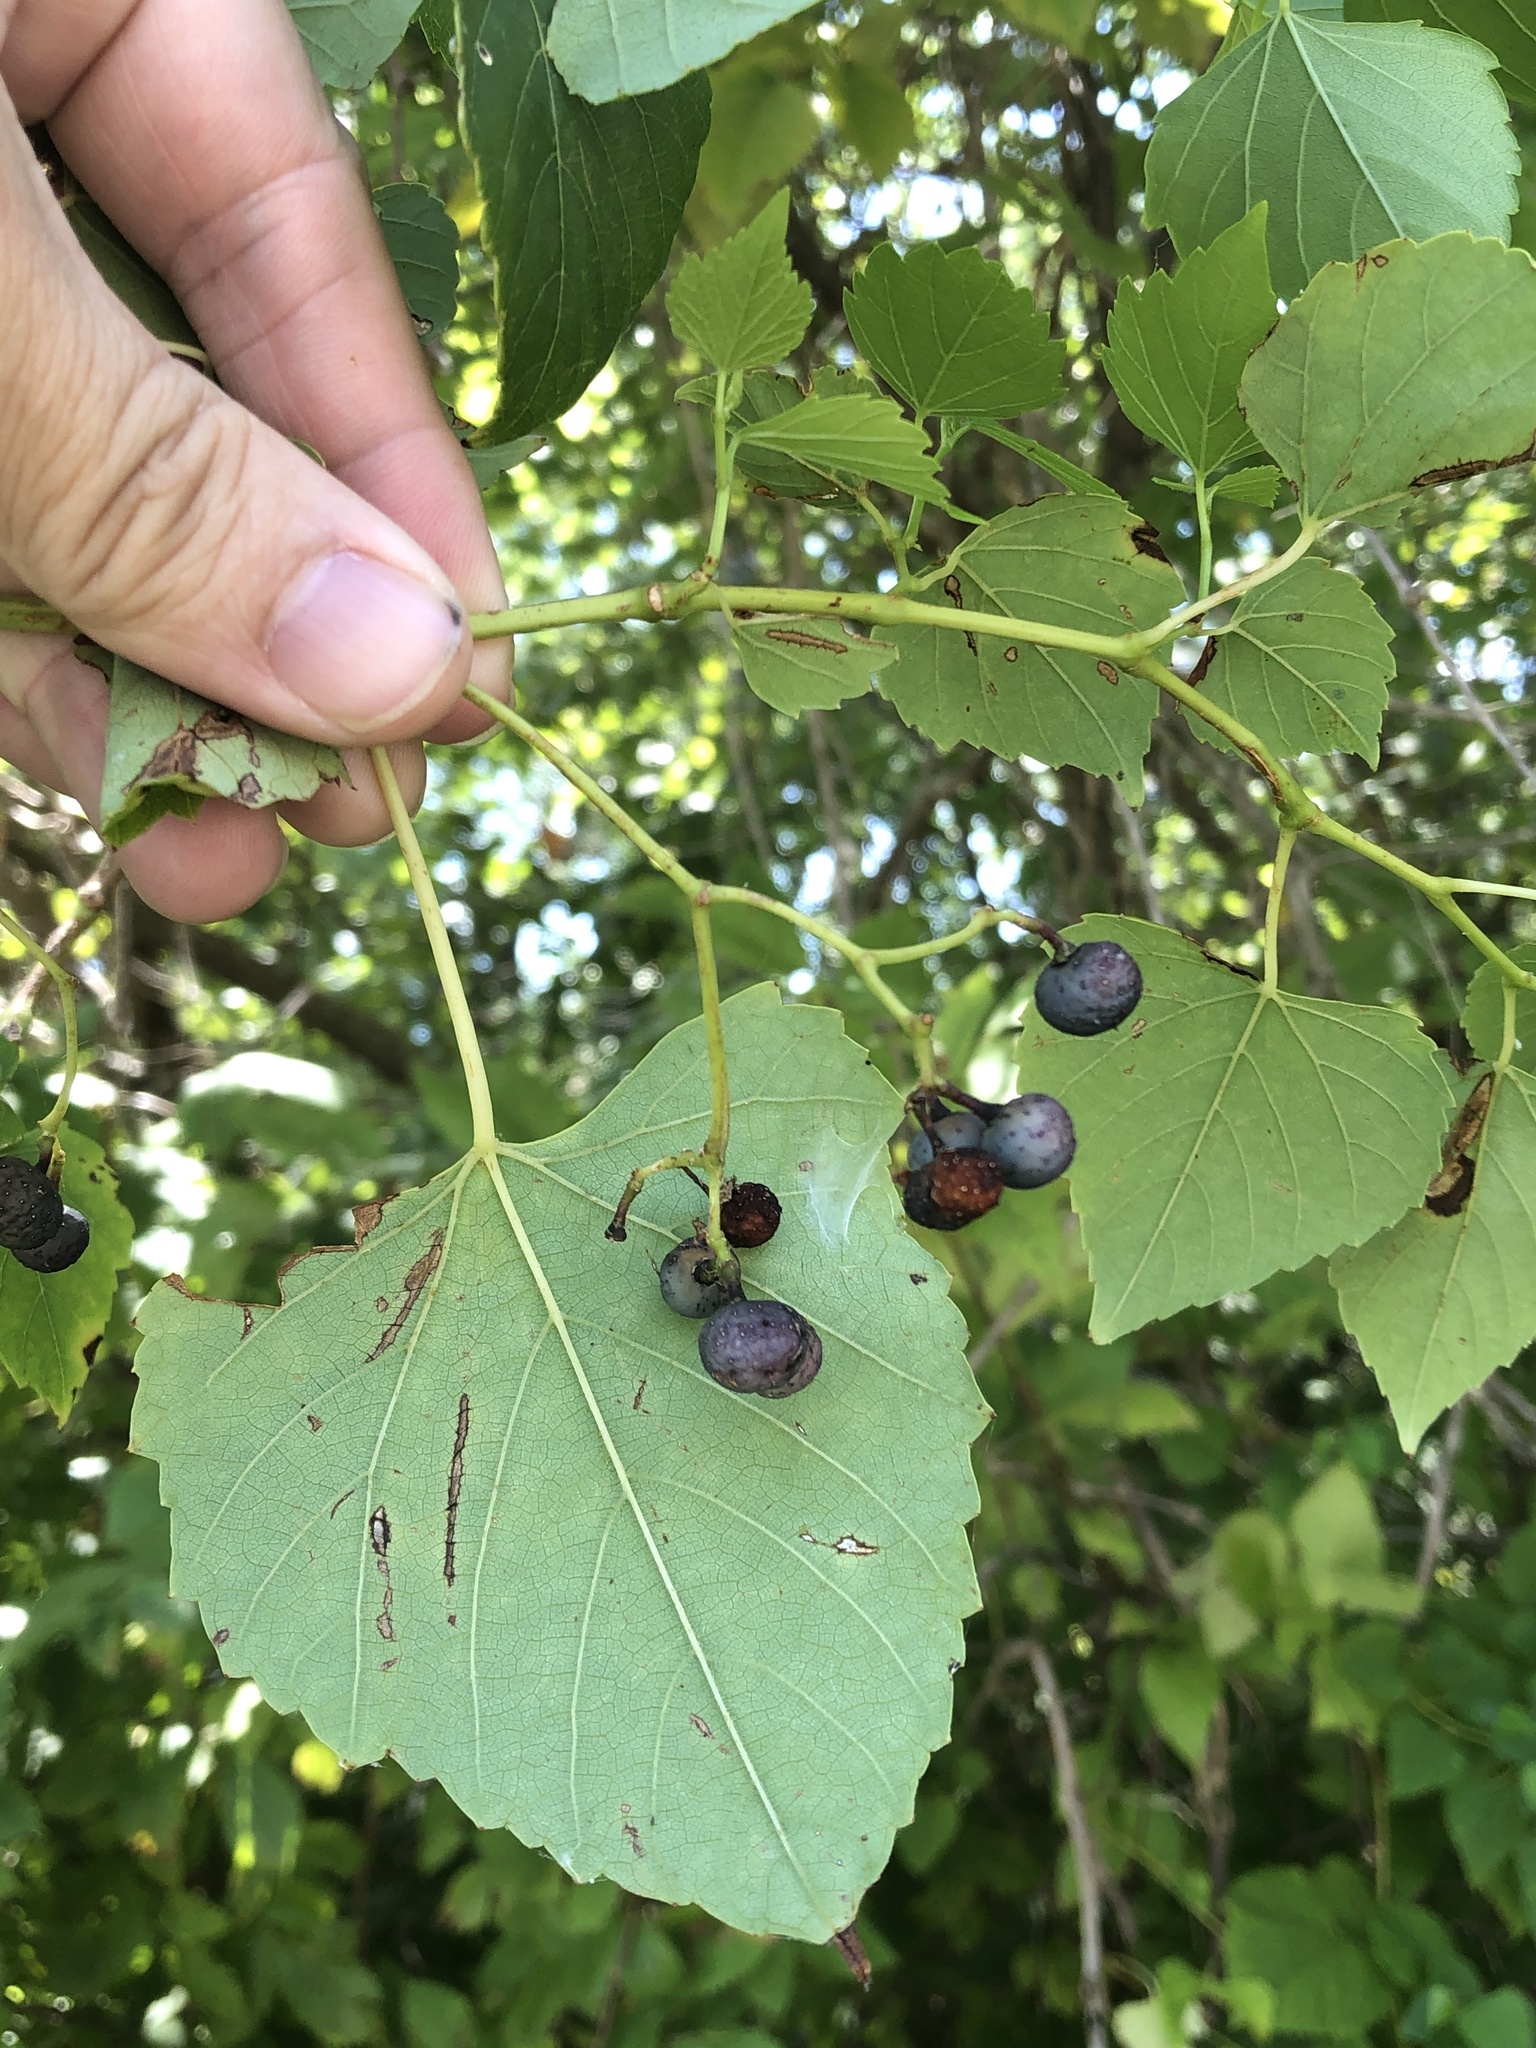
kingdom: Plantae
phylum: Tracheophyta
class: Magnoliopsida
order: Vitales
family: Vitaceae
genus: Ampelopsis
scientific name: Ampelopsis cordata
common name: Heart-leaf ampelopsis
